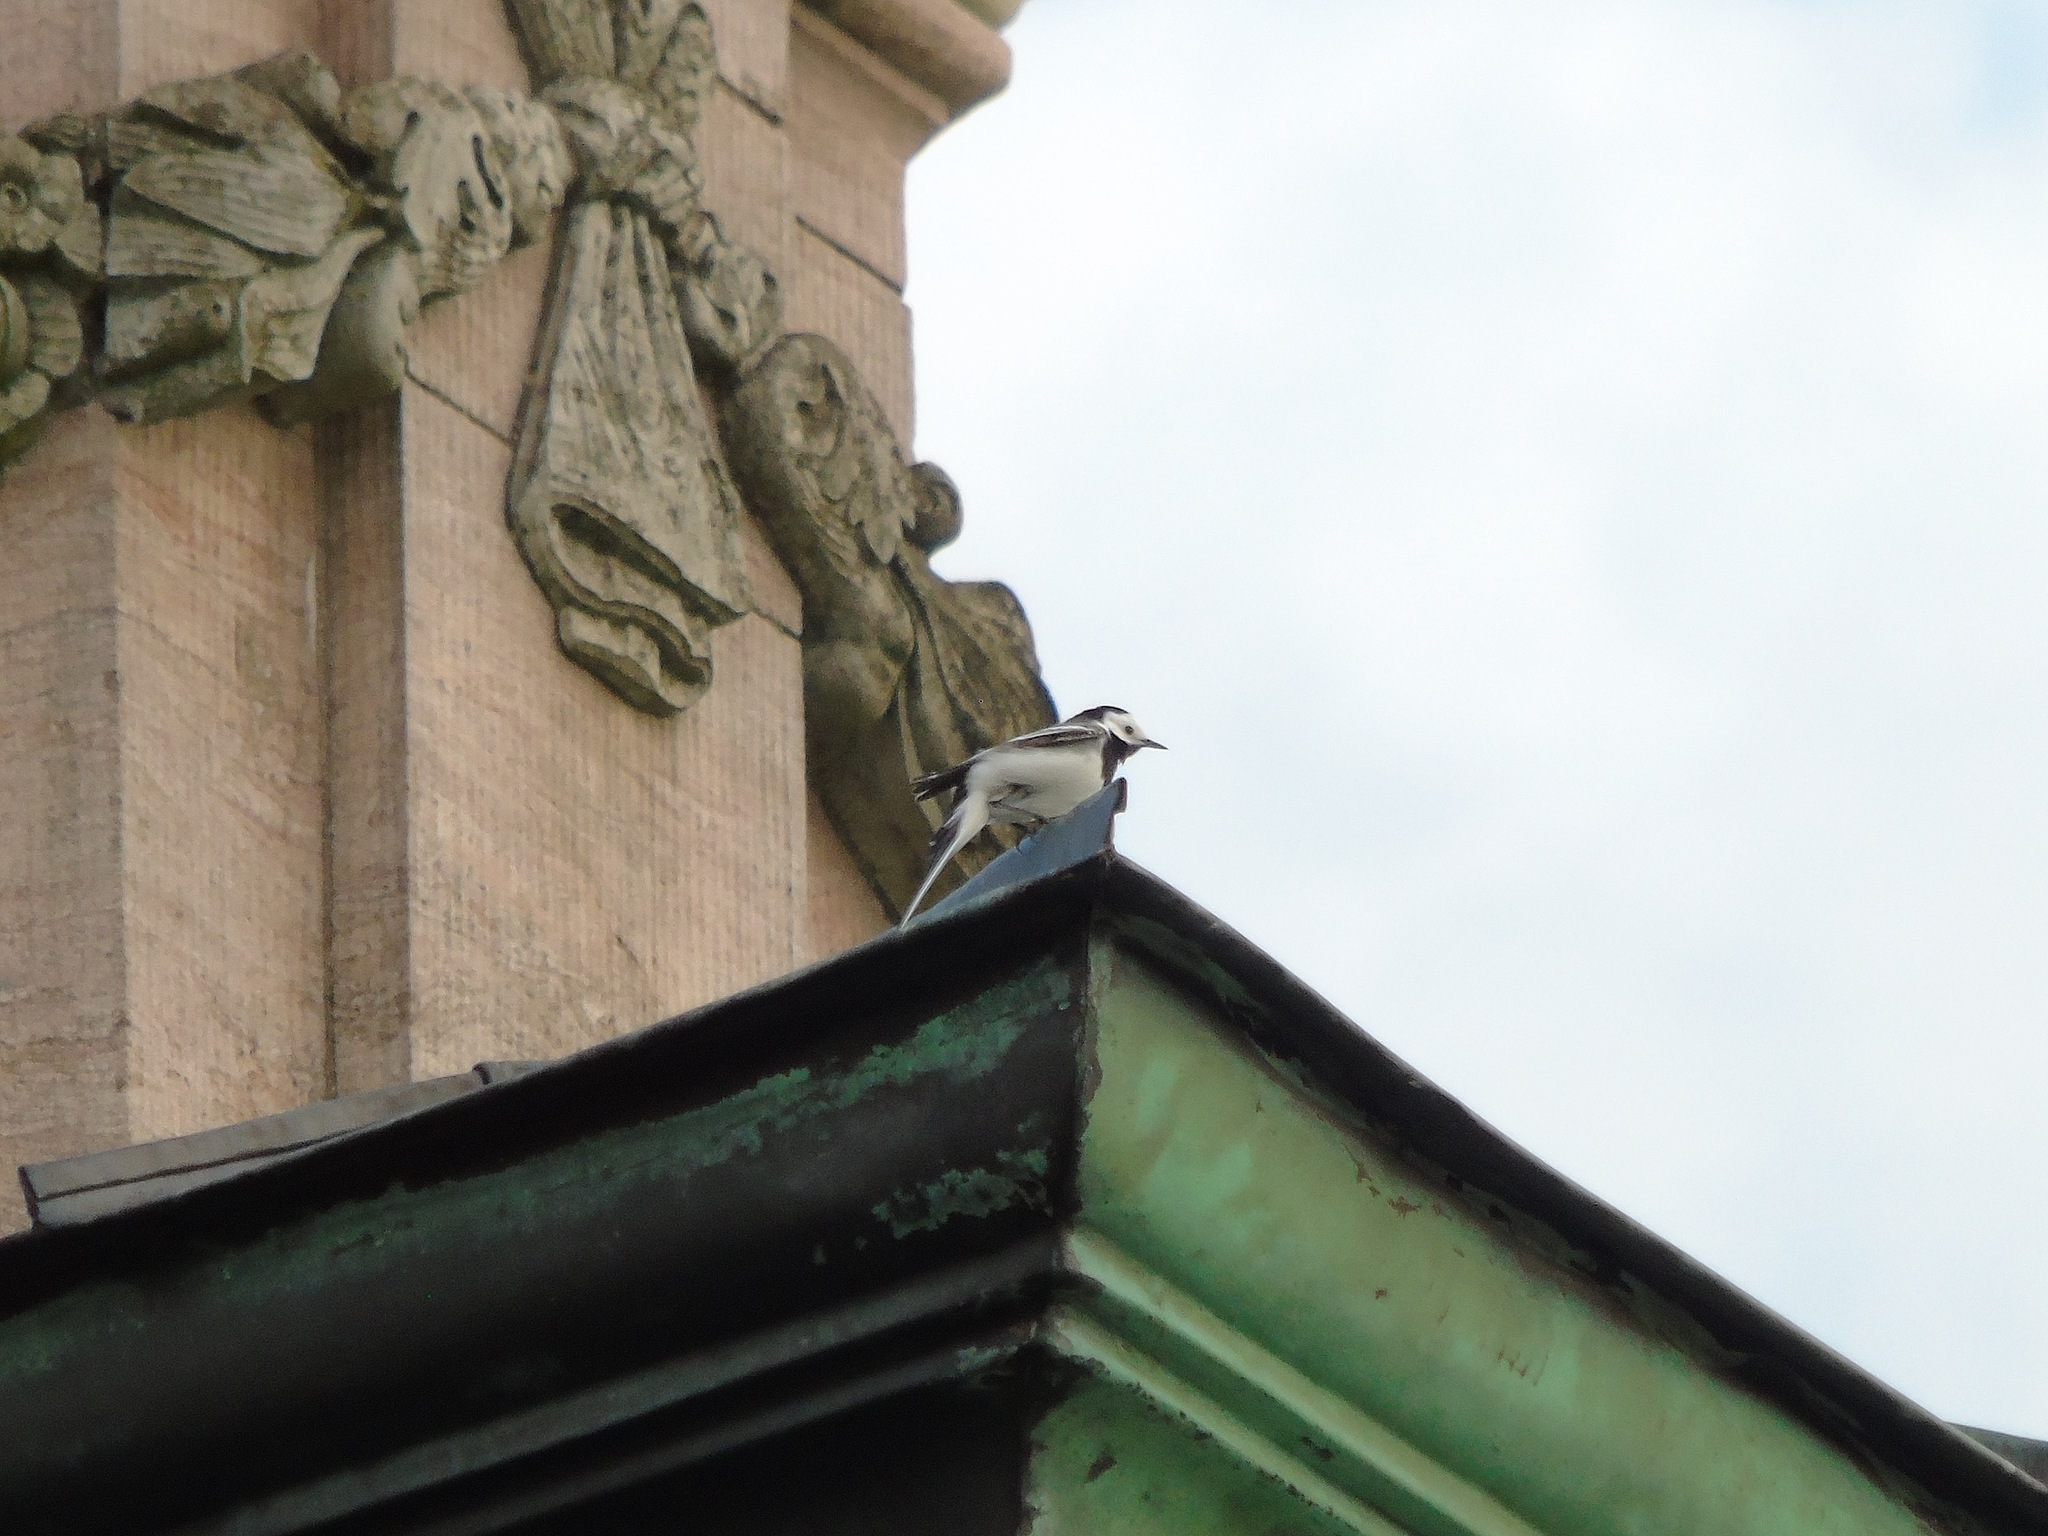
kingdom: Animalia
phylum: Chordata
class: Aves
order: Passeriformes
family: Motacillidae
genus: Motacilla
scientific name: Motacilla alba
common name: White wagtail
